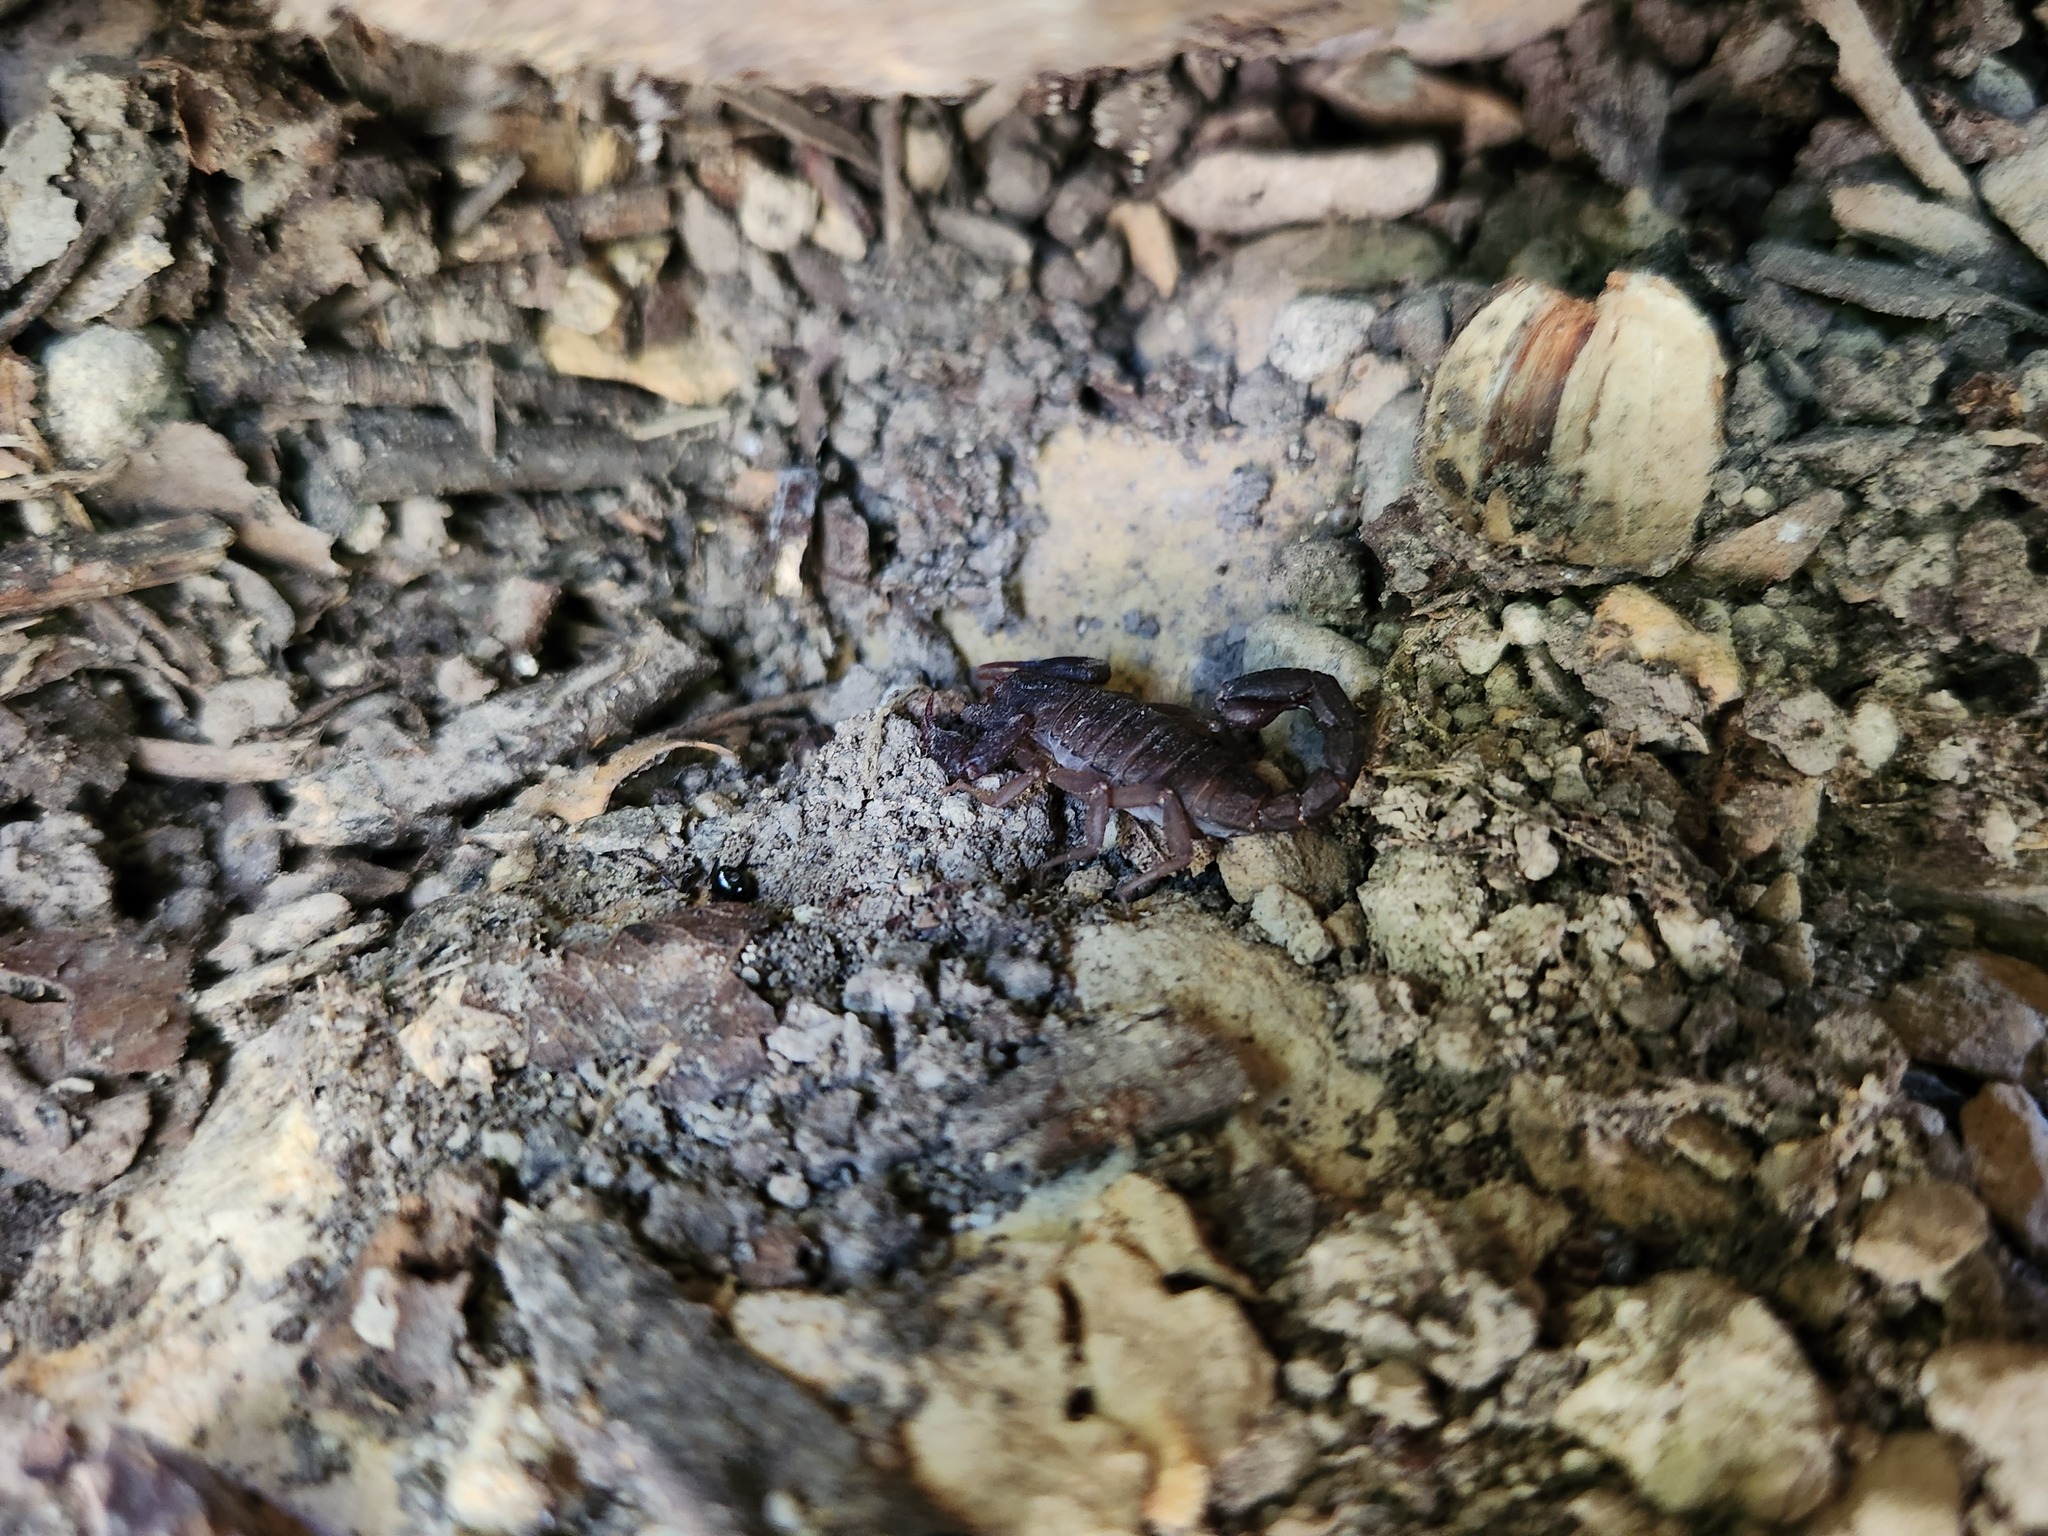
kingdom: Animalia
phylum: Arthropoda
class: Arachnida
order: Scorpiones
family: Vaejovidae
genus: Vaejovis
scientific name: Vaejovis carolinianus
